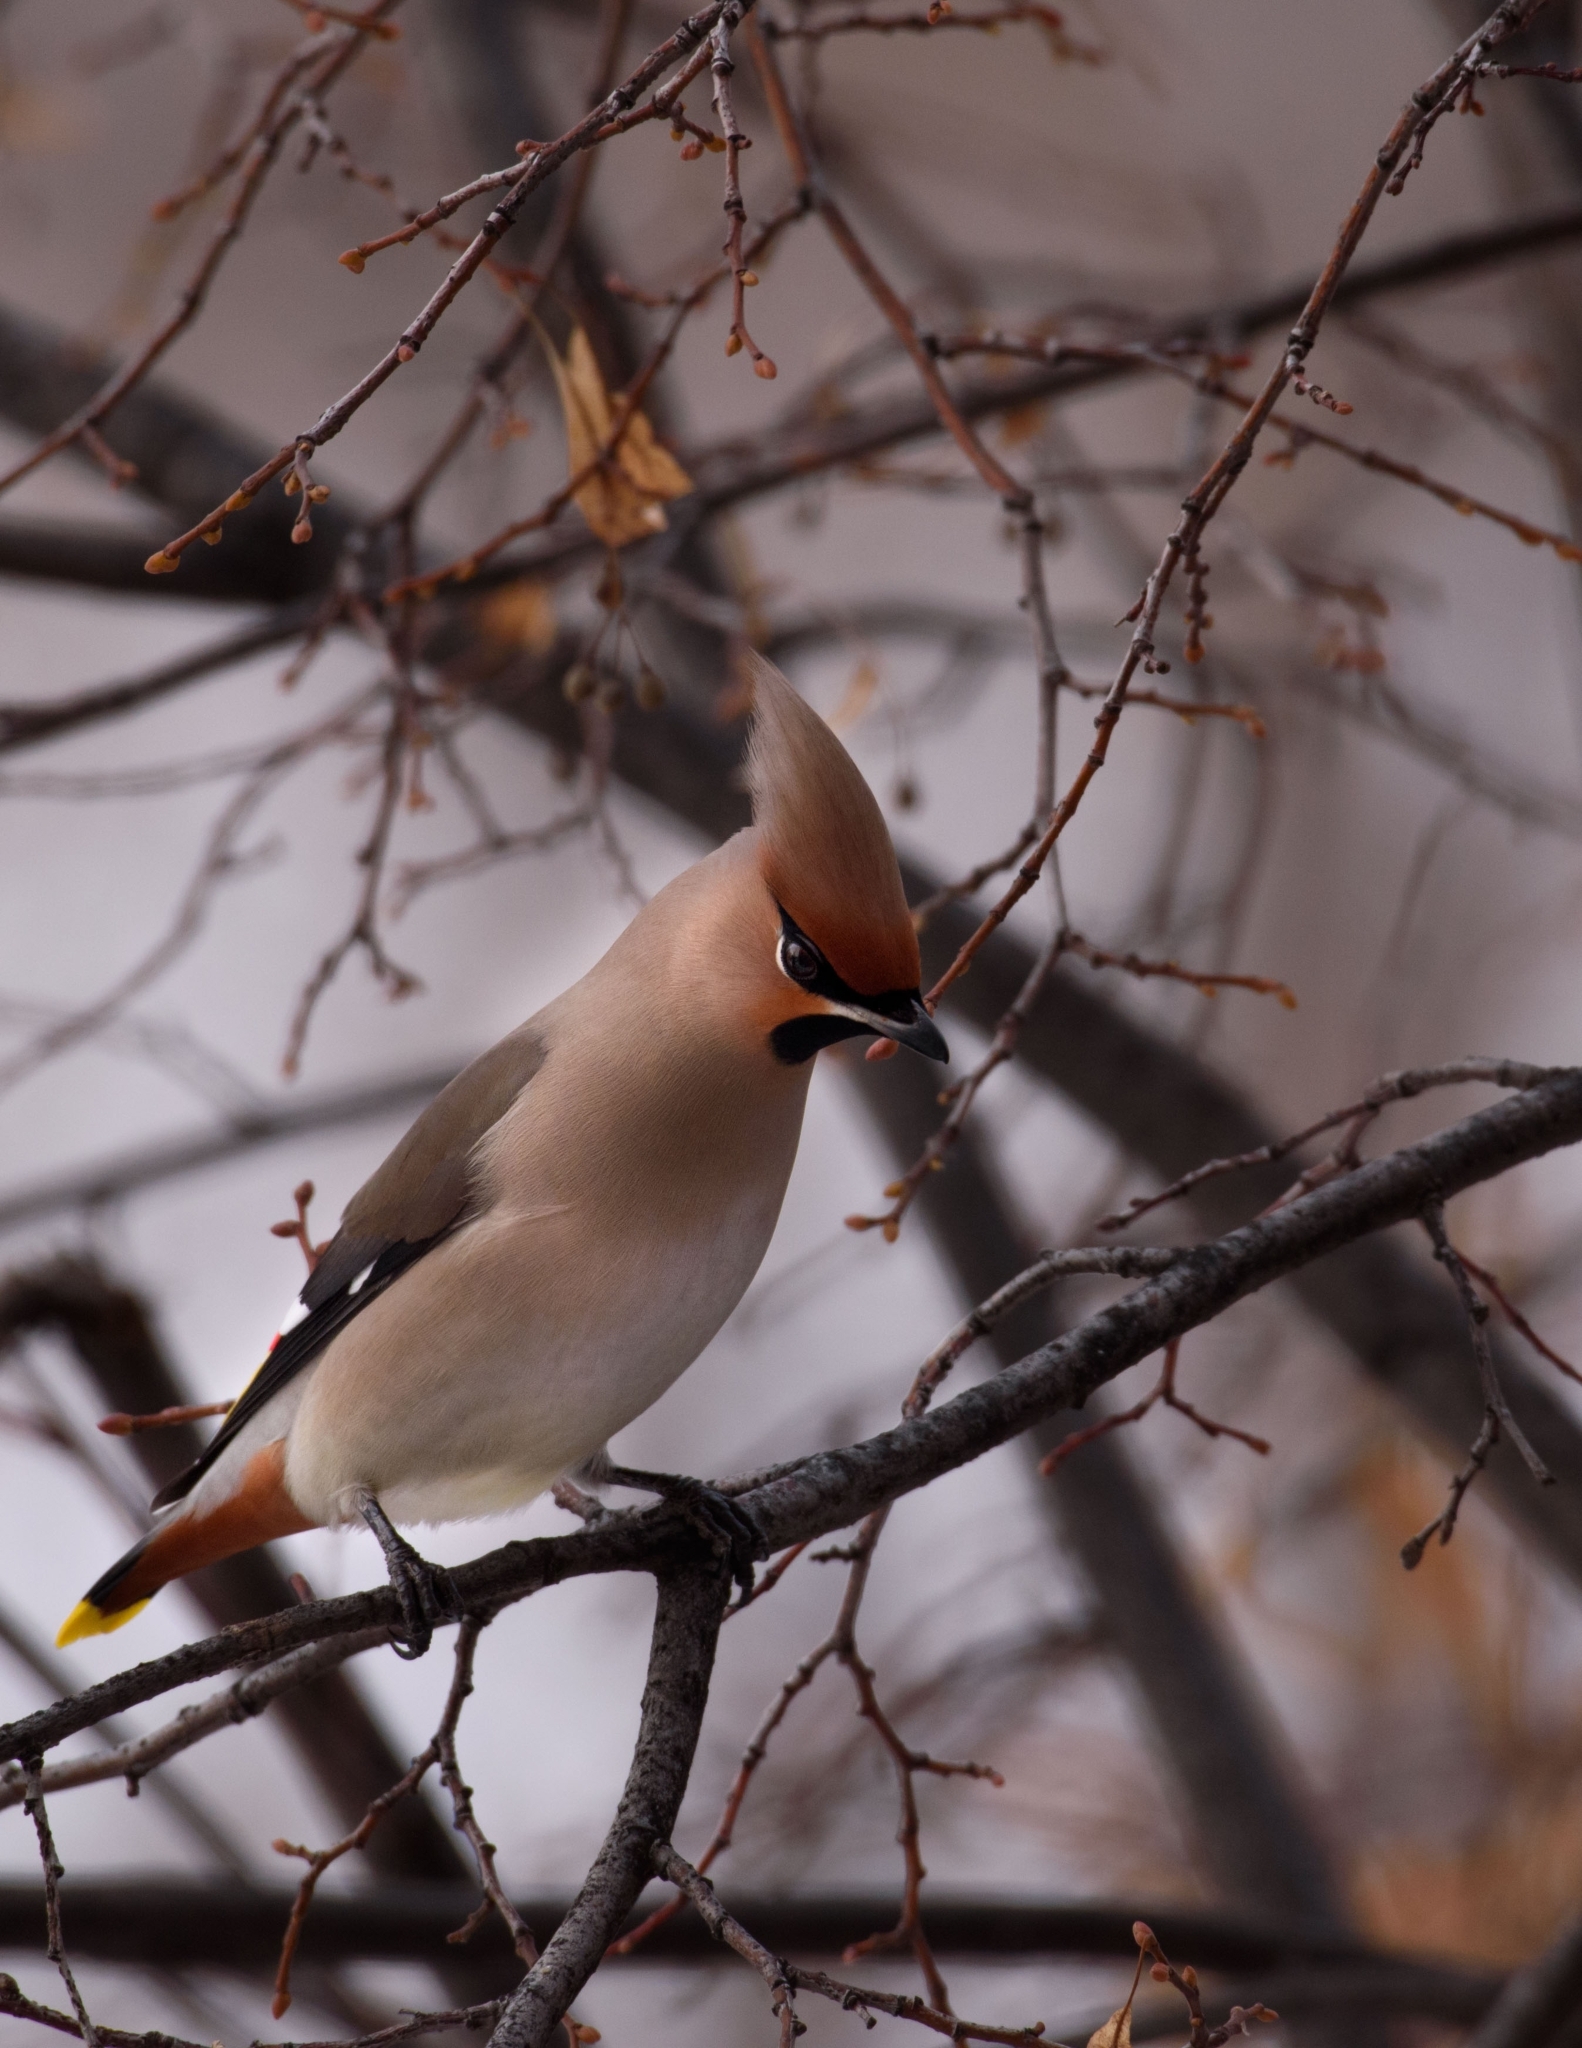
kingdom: Animalia
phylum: Chordata
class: Aves
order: Passeriformes
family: Bombycillidae
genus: Bombycilla
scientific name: Bombycilla garrulus
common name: Bohemian waxwing
